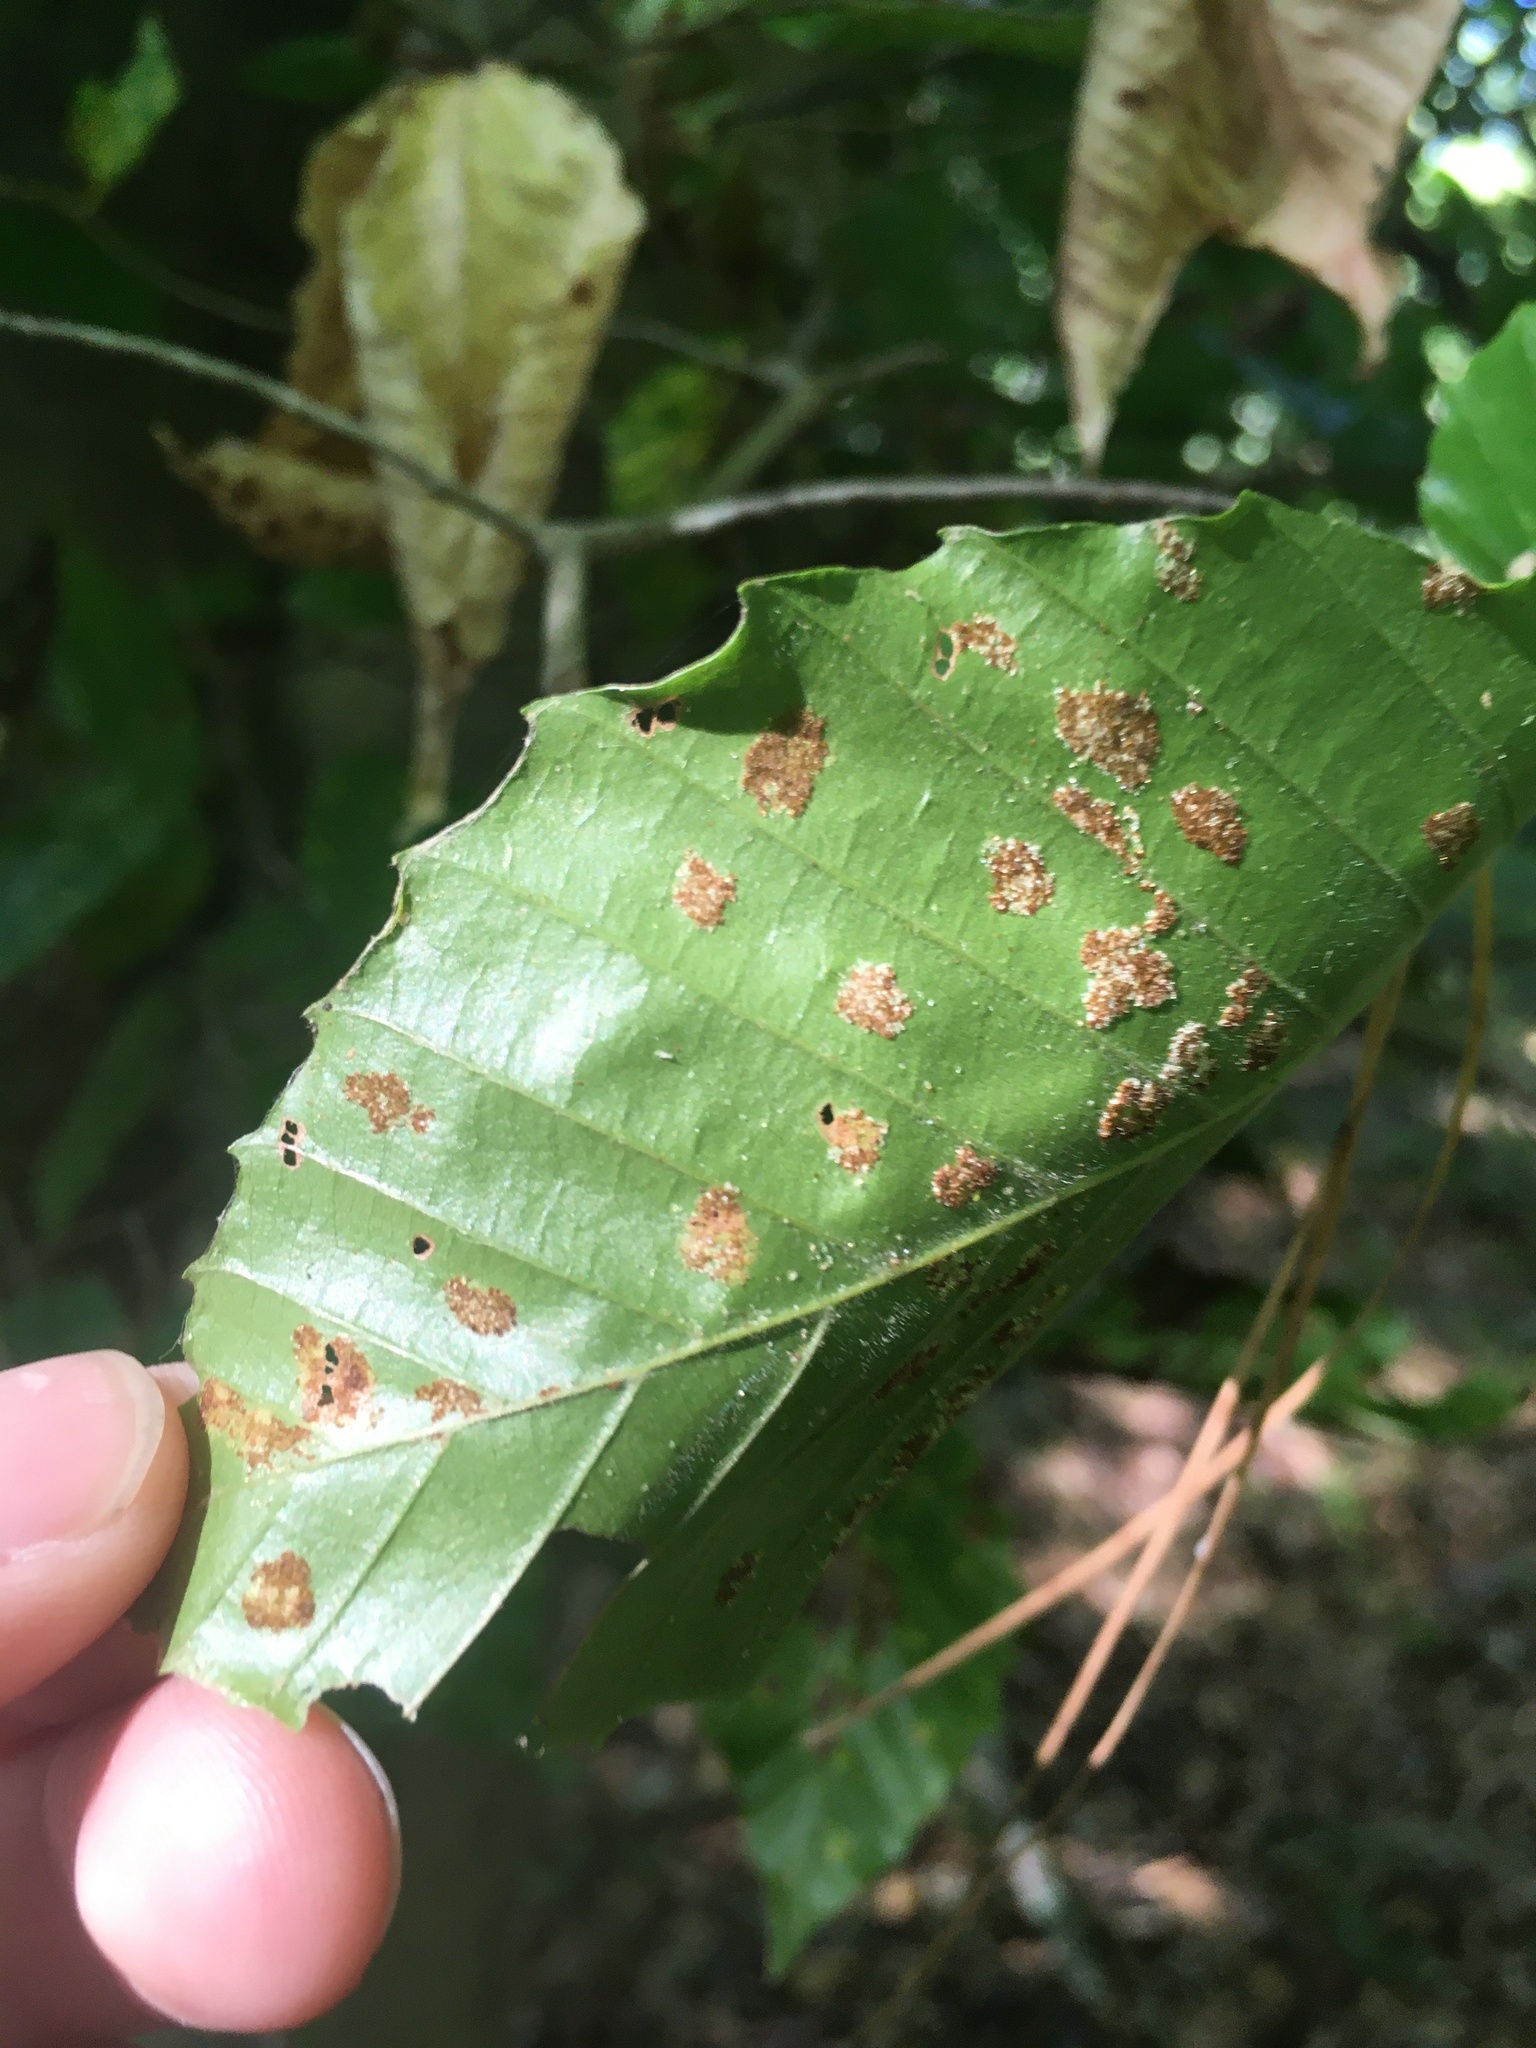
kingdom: Animalia
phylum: Arthropoda
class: Arachnida
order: Trombidiformes
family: Eriophyidae
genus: Acalitus
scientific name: Acalitus
